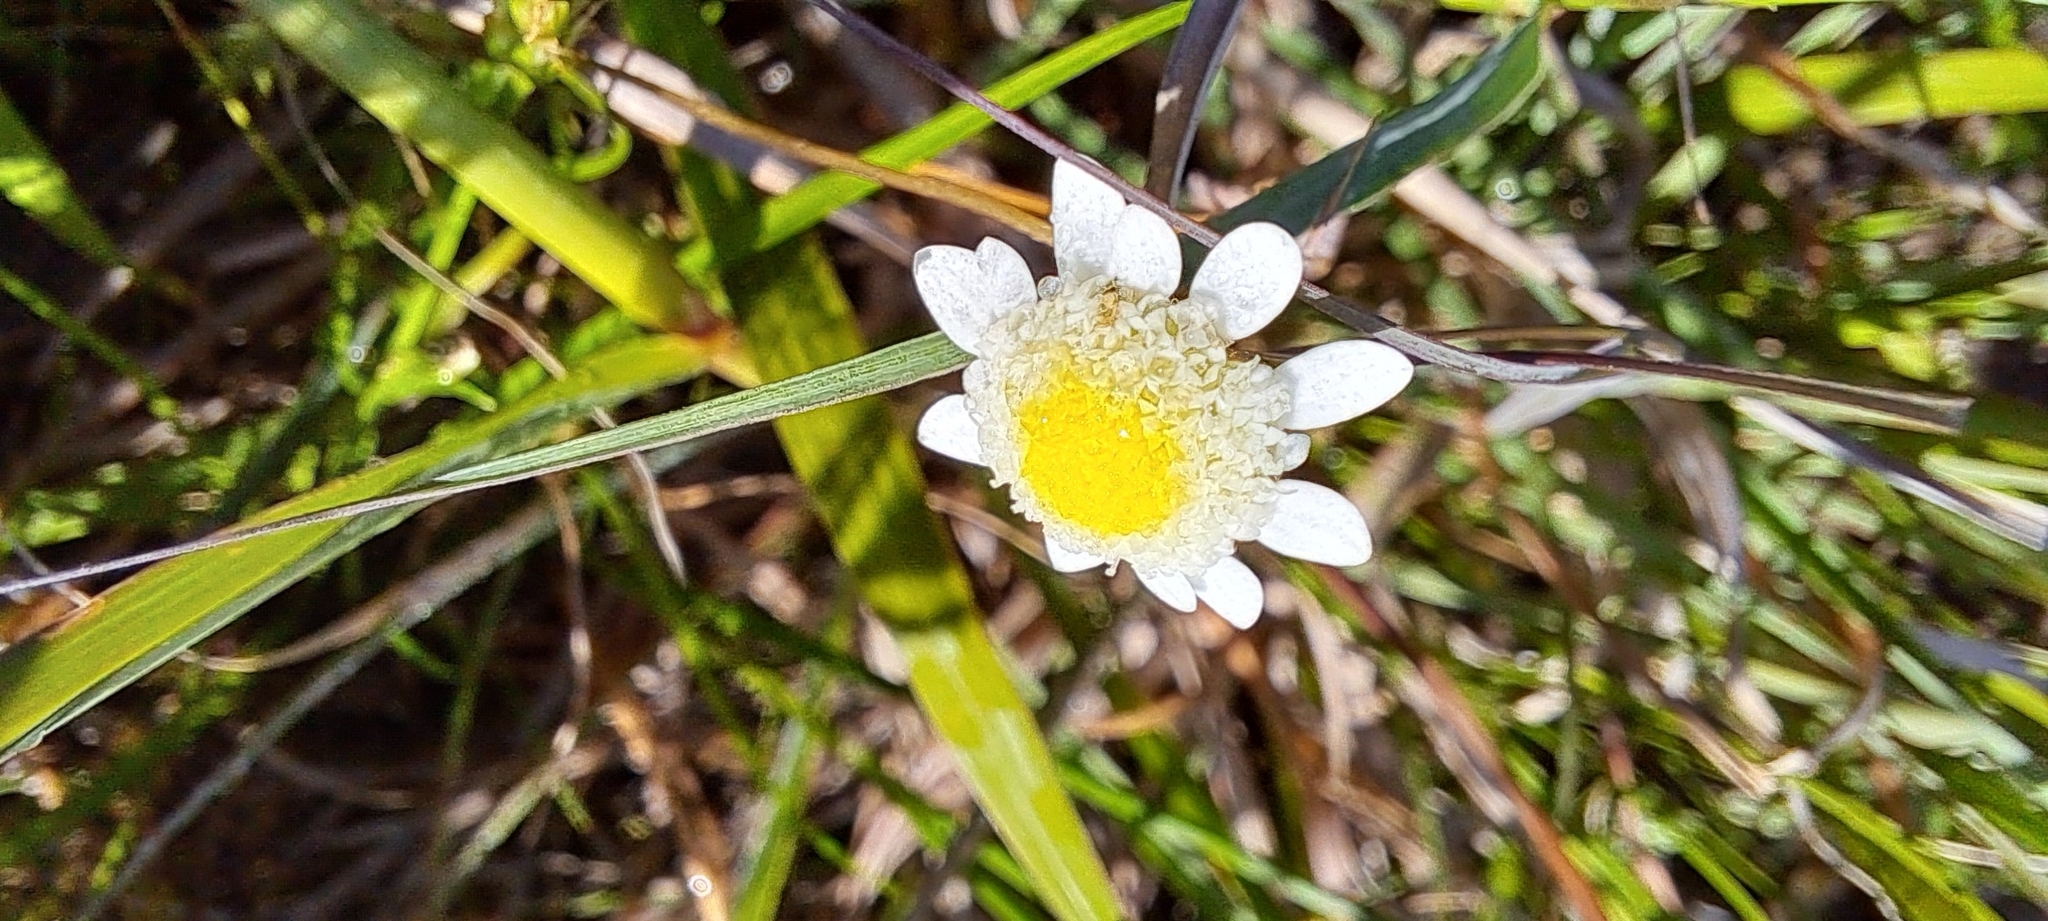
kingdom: Plantae
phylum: Tracheophyta
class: Magnoliopsida
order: Asterales
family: Asteraceae
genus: Cotula
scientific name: Cotula turbinata
